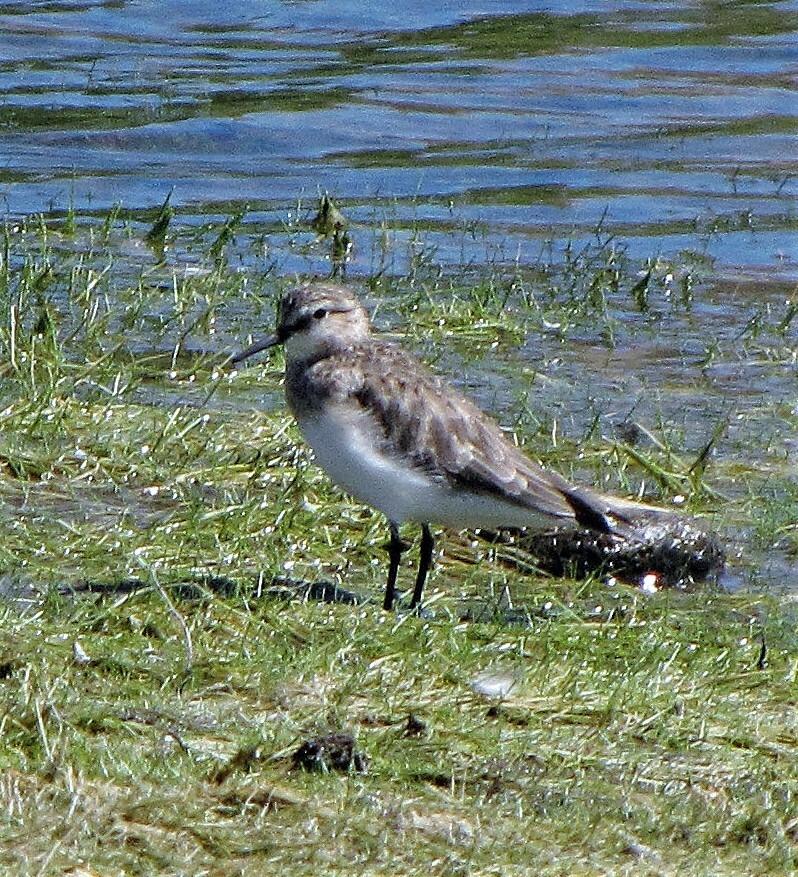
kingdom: Animalia
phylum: Chordata
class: Aves
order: Charadriiformes
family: Scolopacidae
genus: Calidris
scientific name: Calidris bairdii
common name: Baird's sandpiper
